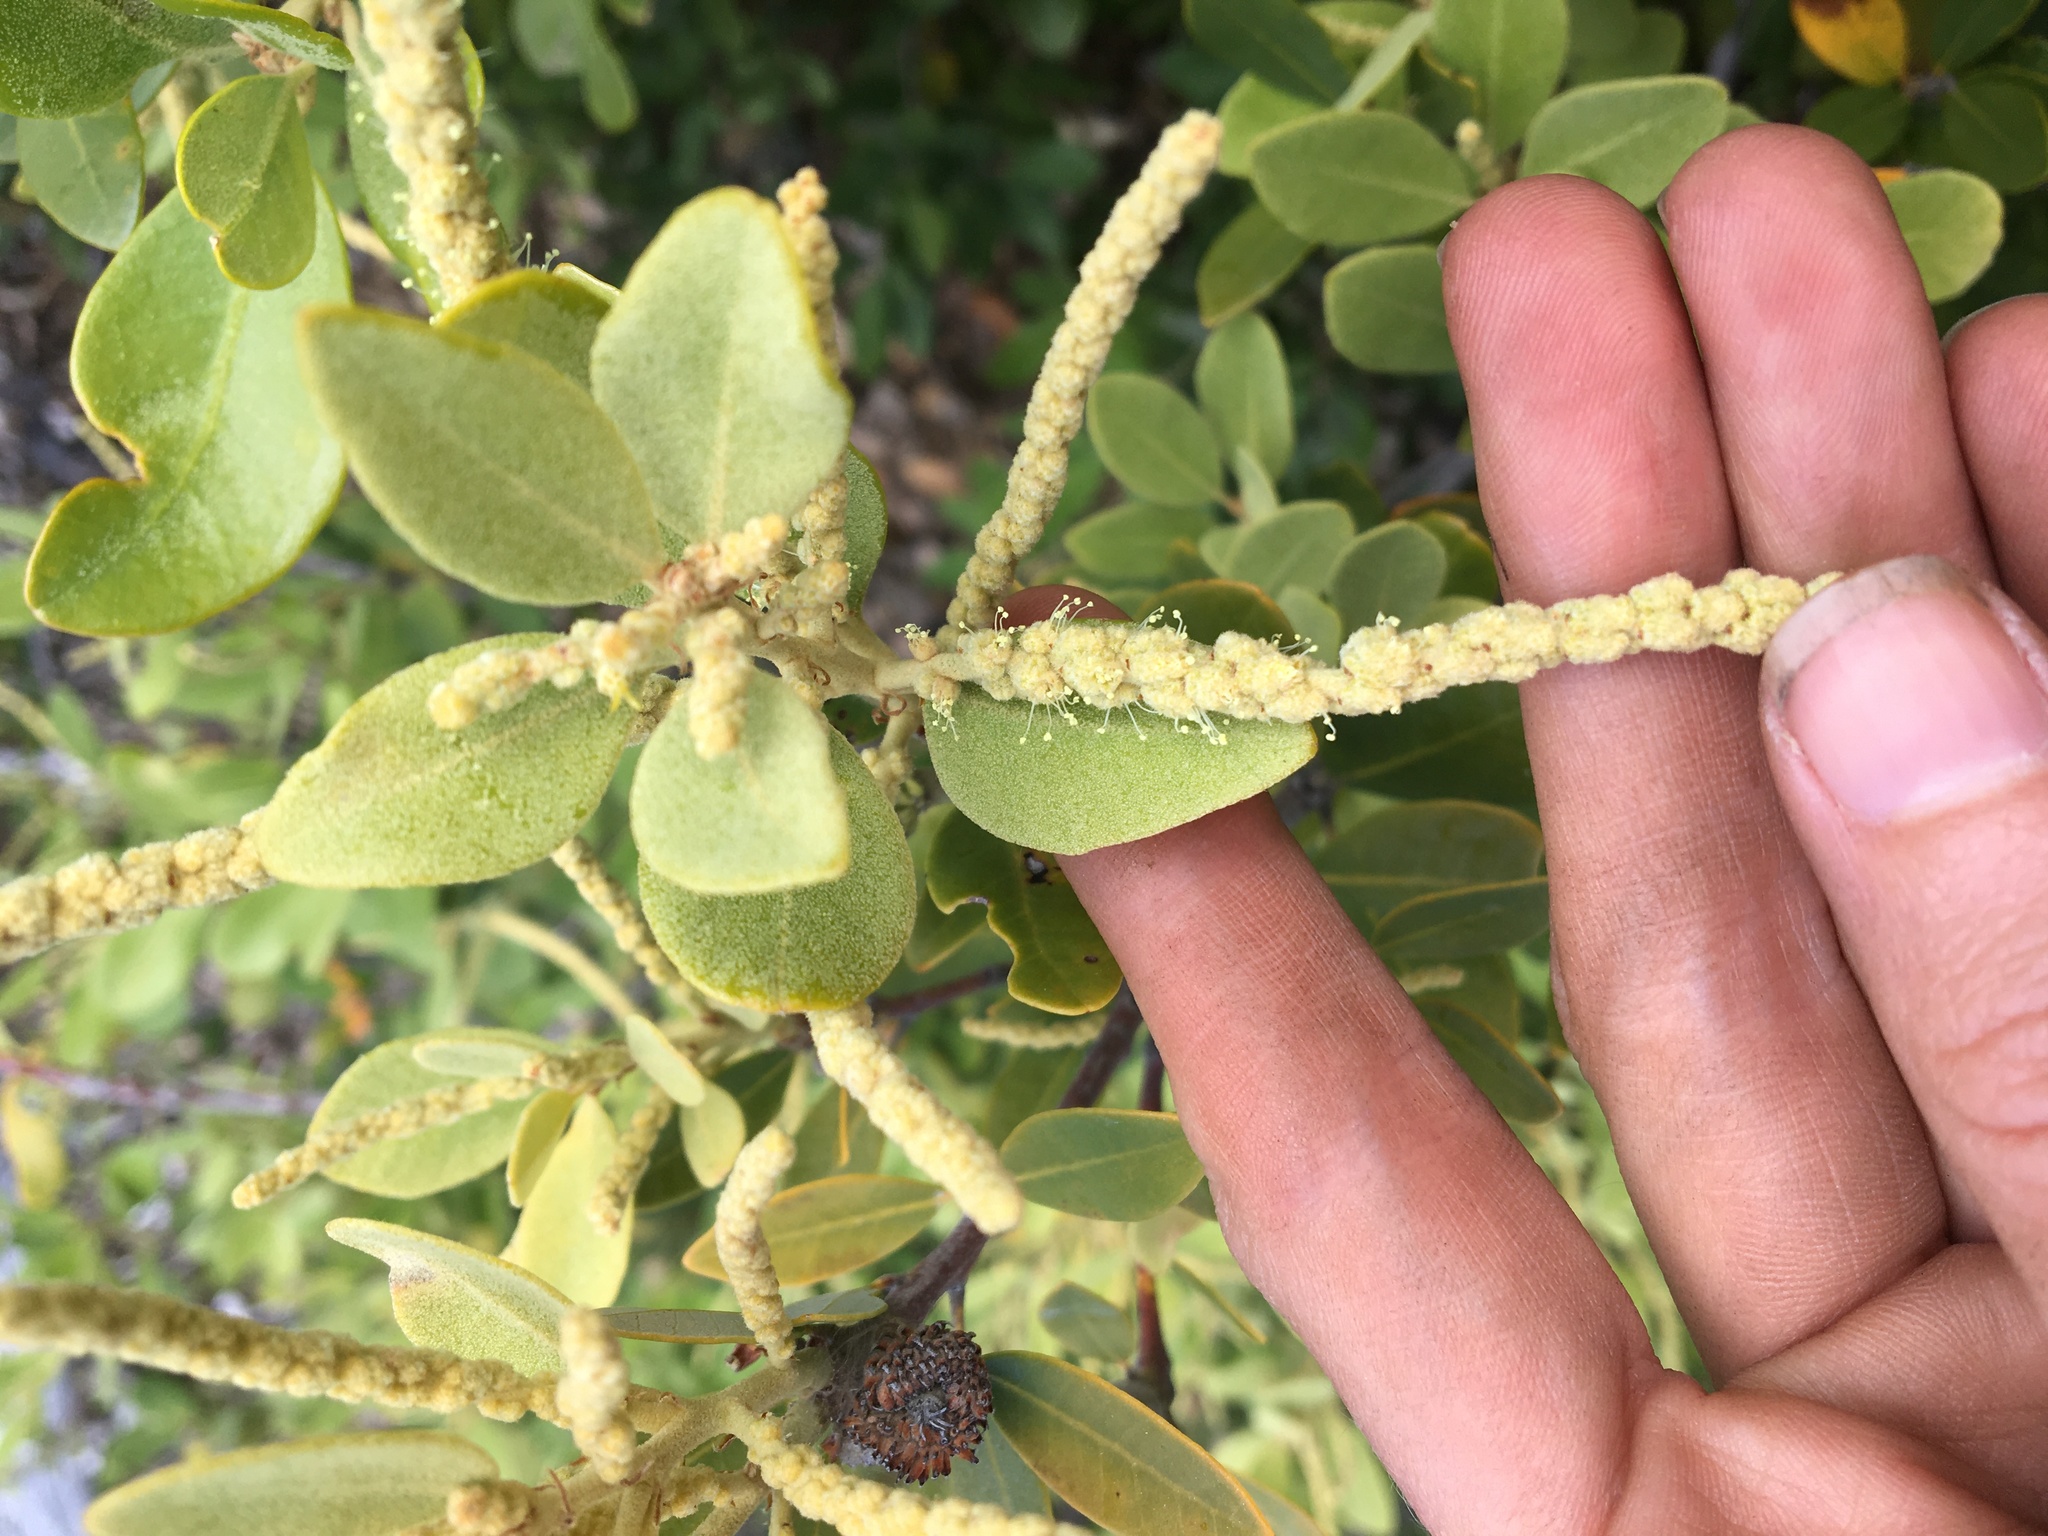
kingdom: Plantae
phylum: Tracheophyta
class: Magnoliopsida
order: Fagales
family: Fagaceae
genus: Notholithocarpus
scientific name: Notholithocarpus densiflorus
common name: Tan bark oak
